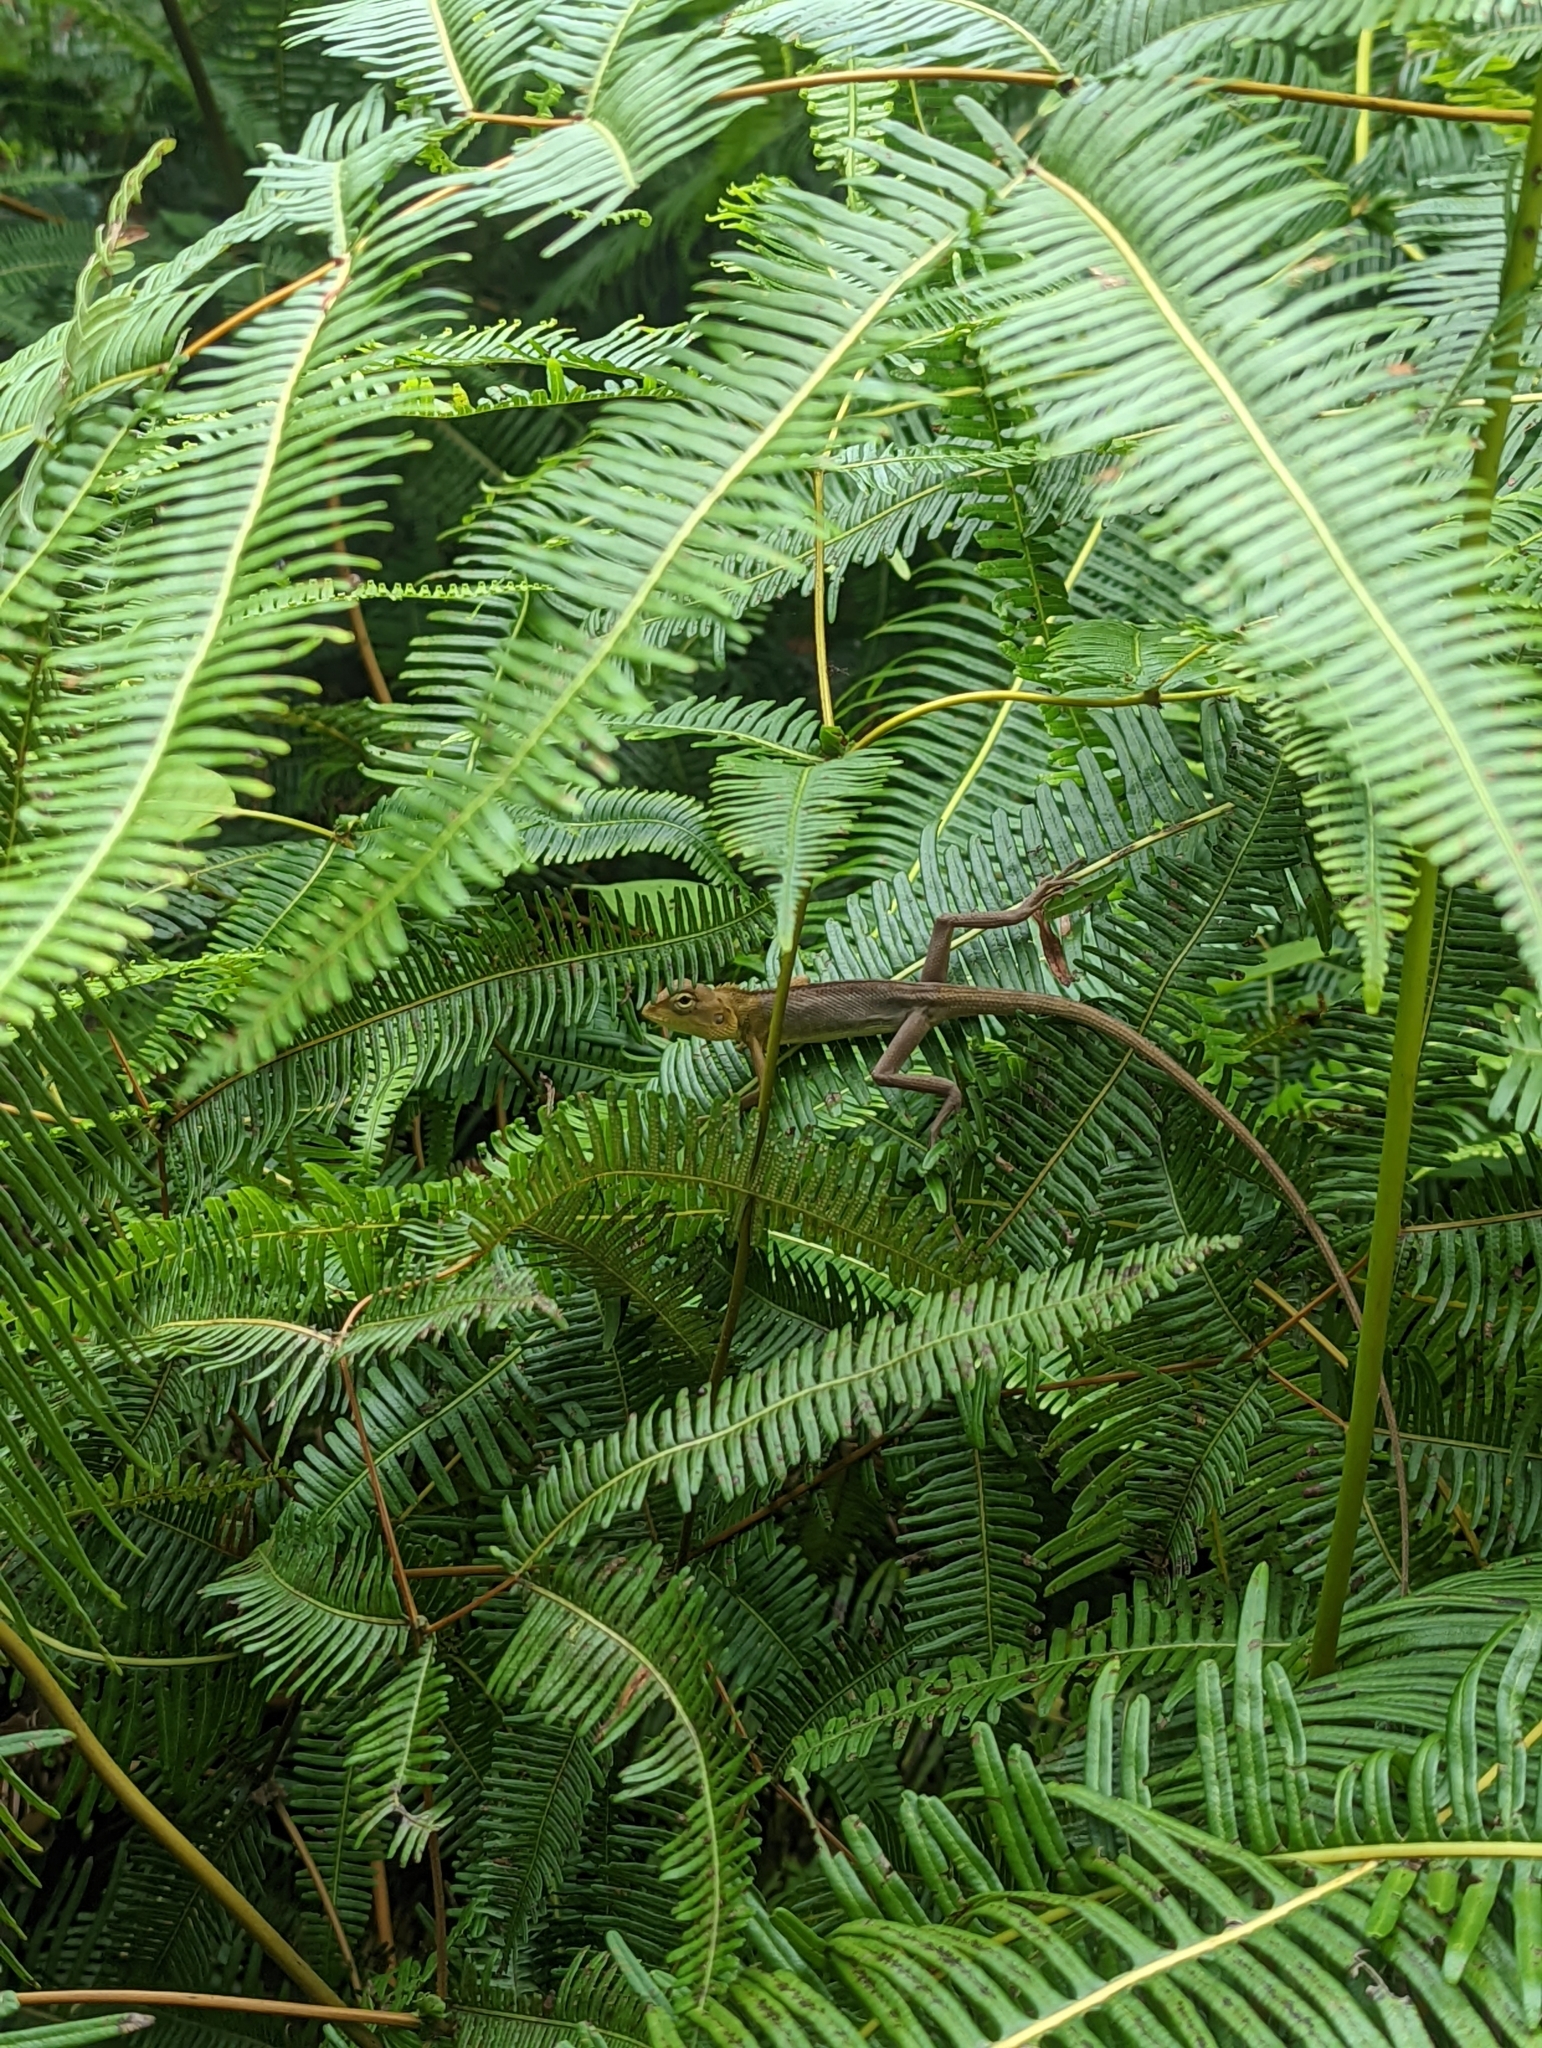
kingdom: Animalia
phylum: Chordata
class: Squamata
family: Agamidae
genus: Calotes
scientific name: Calotes versicolor
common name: Oriental garden lizard
